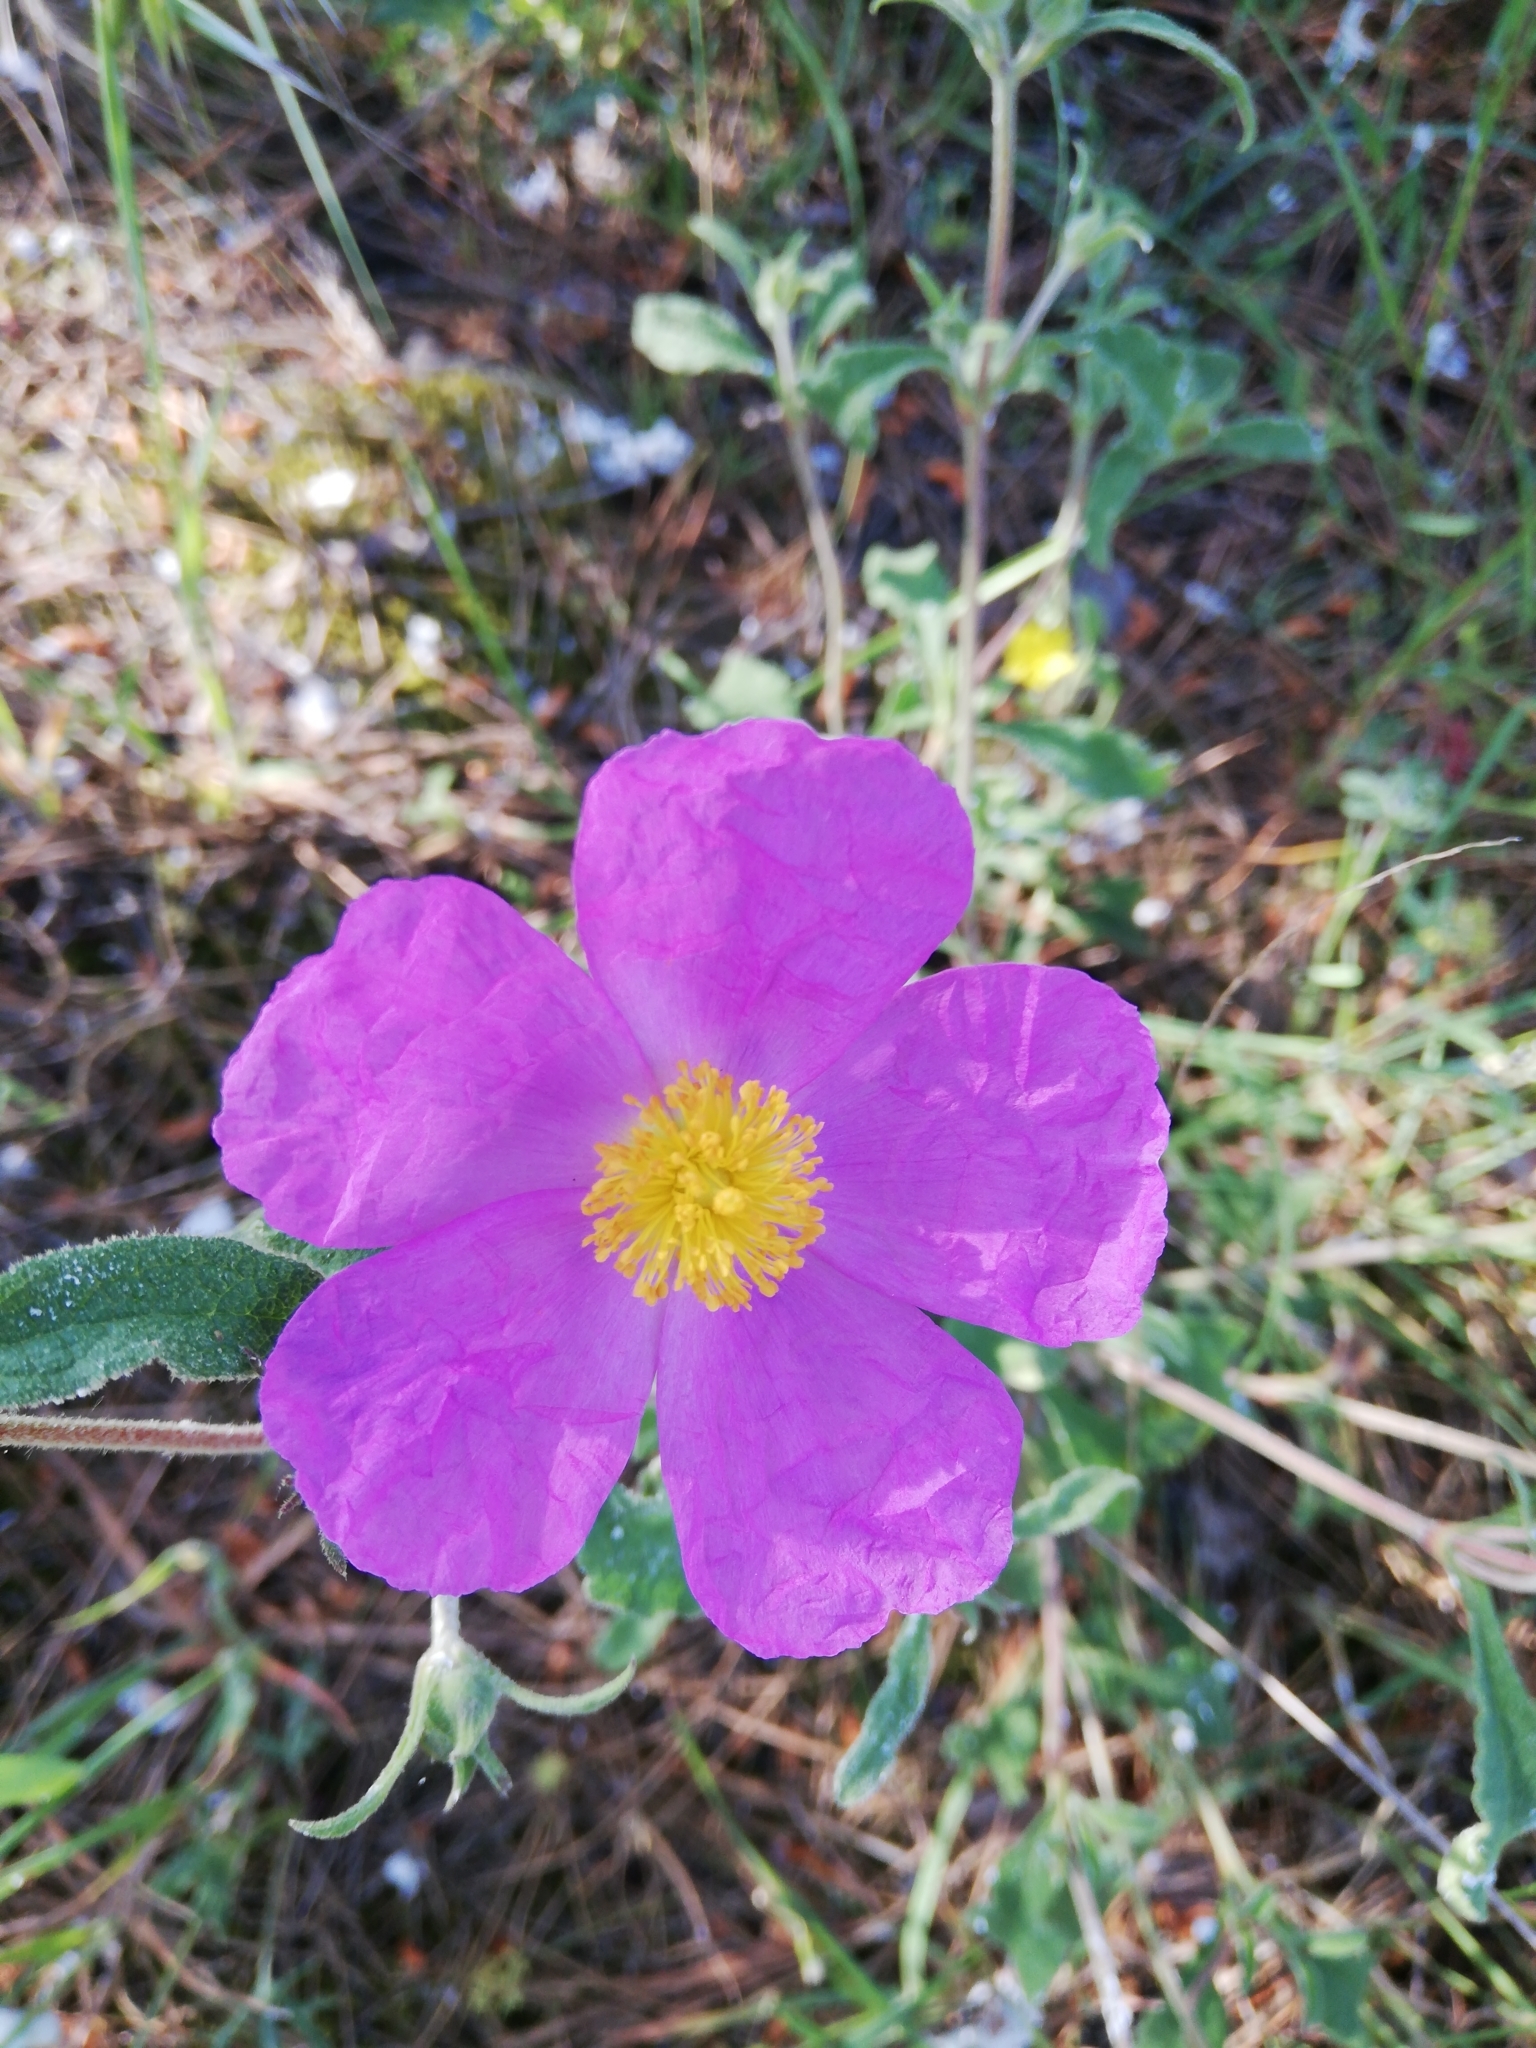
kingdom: Plantae
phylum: Tracheophyta
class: Magnoliopsida
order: Malvales
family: Cistaceae
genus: Cistus
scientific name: Cistus creticus
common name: Cretan rockrose
